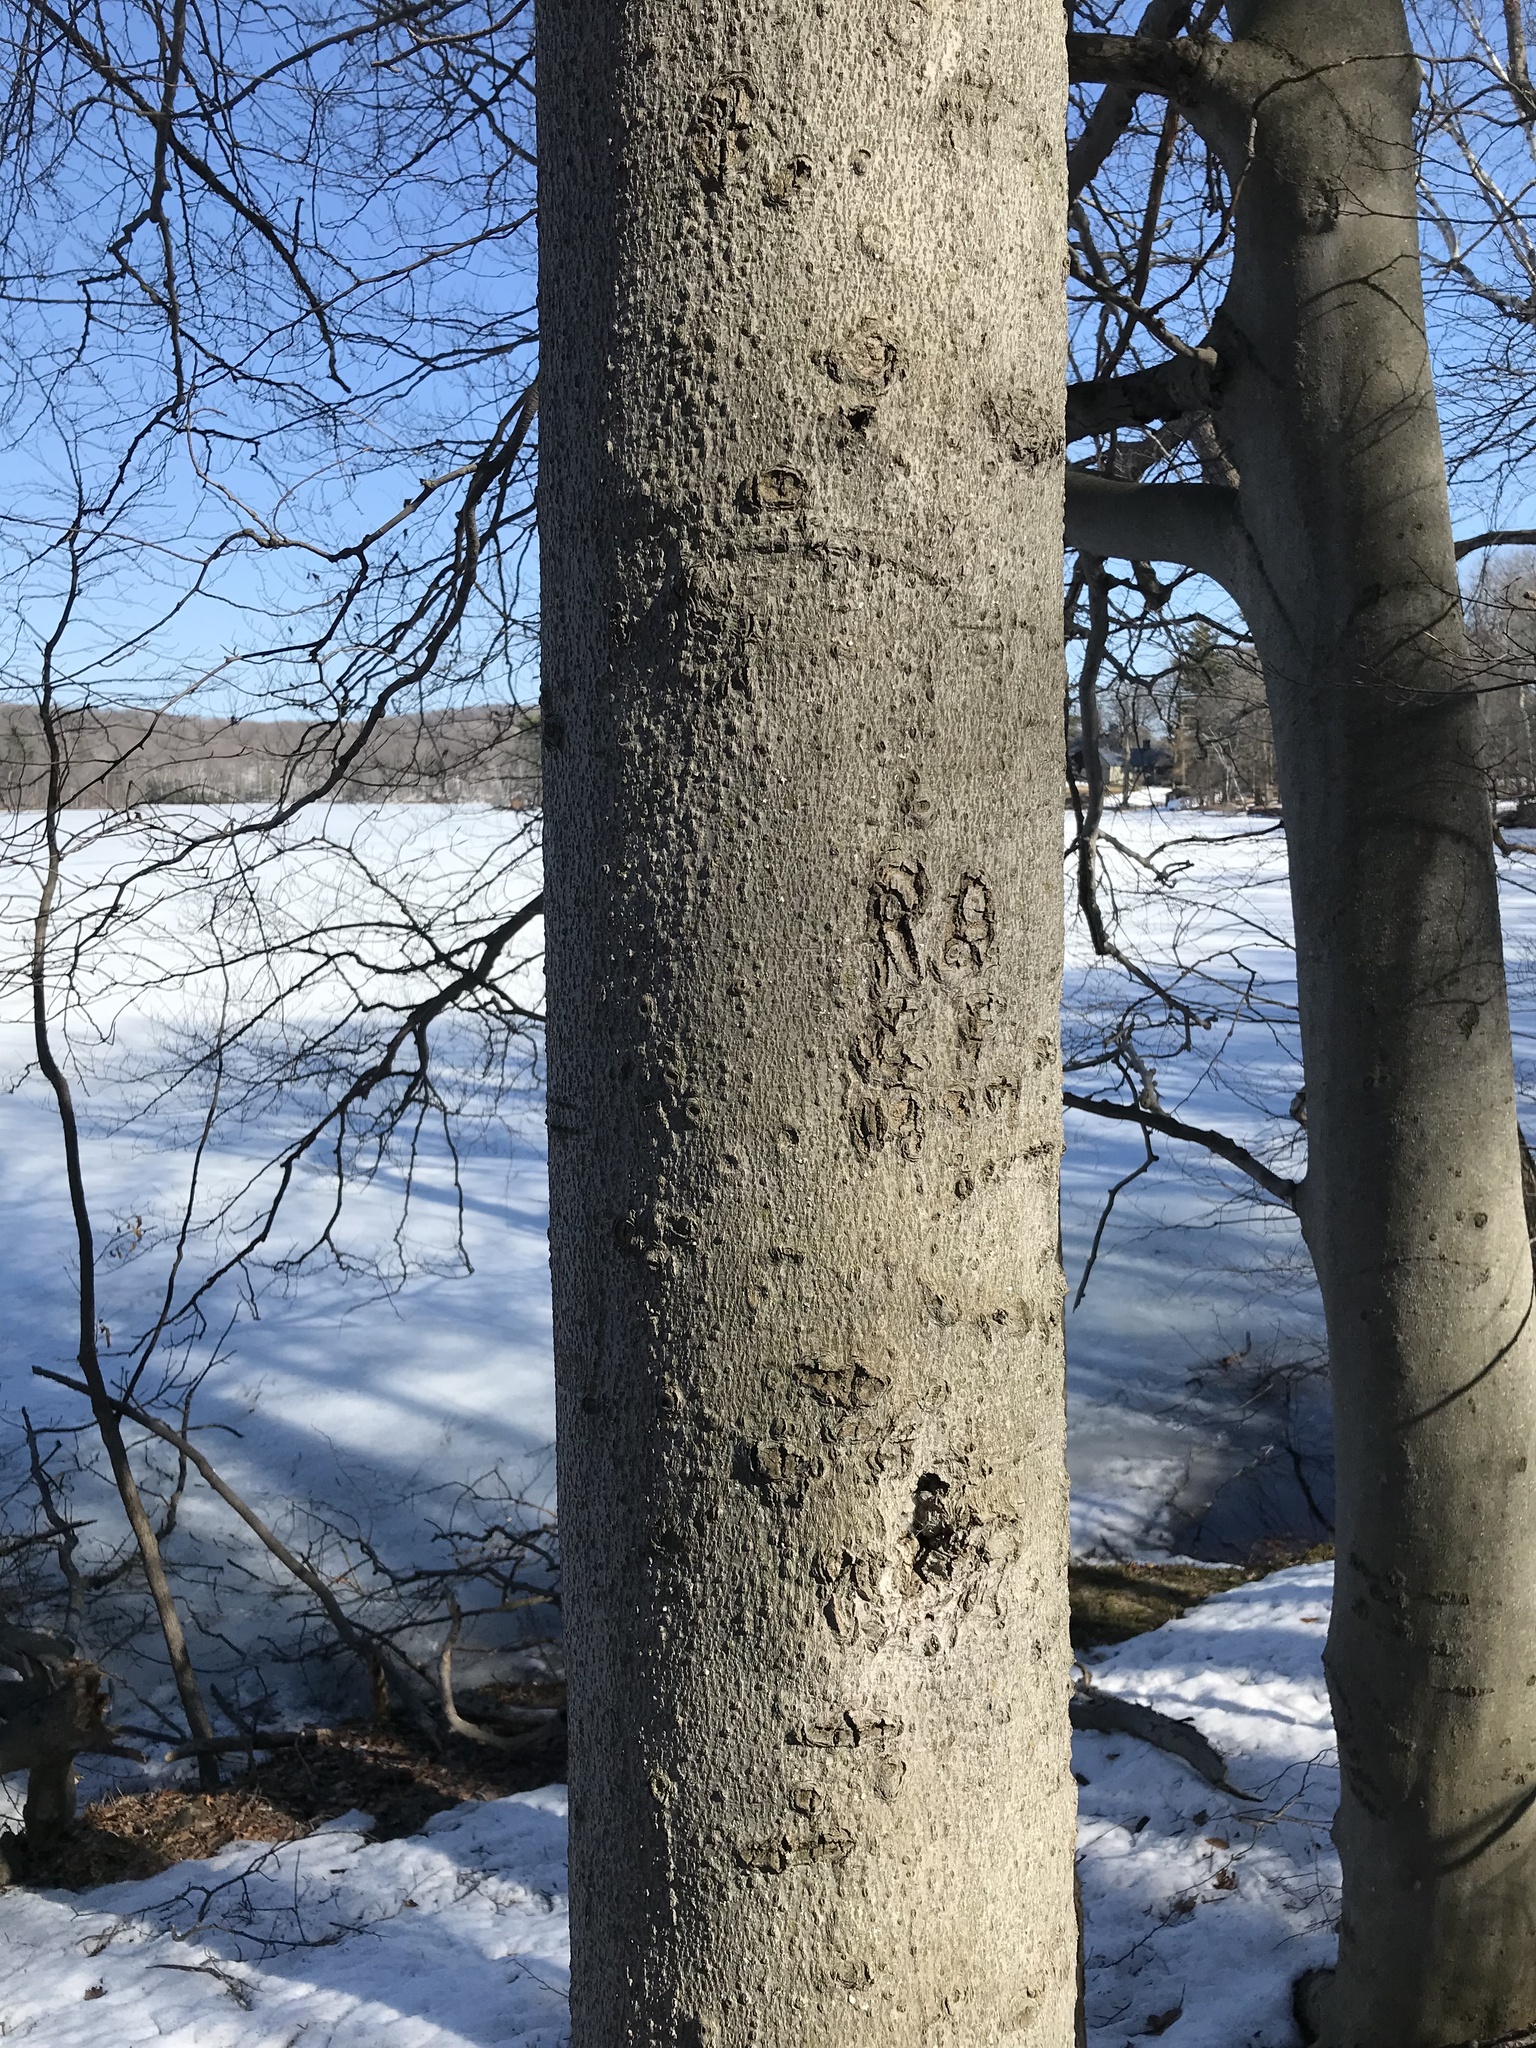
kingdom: Plantae
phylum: Tracheophyta
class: Magnoliopsida
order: Fagales
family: Fagaceae
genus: Fagus
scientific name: Fagus grandifolia
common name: American beech
